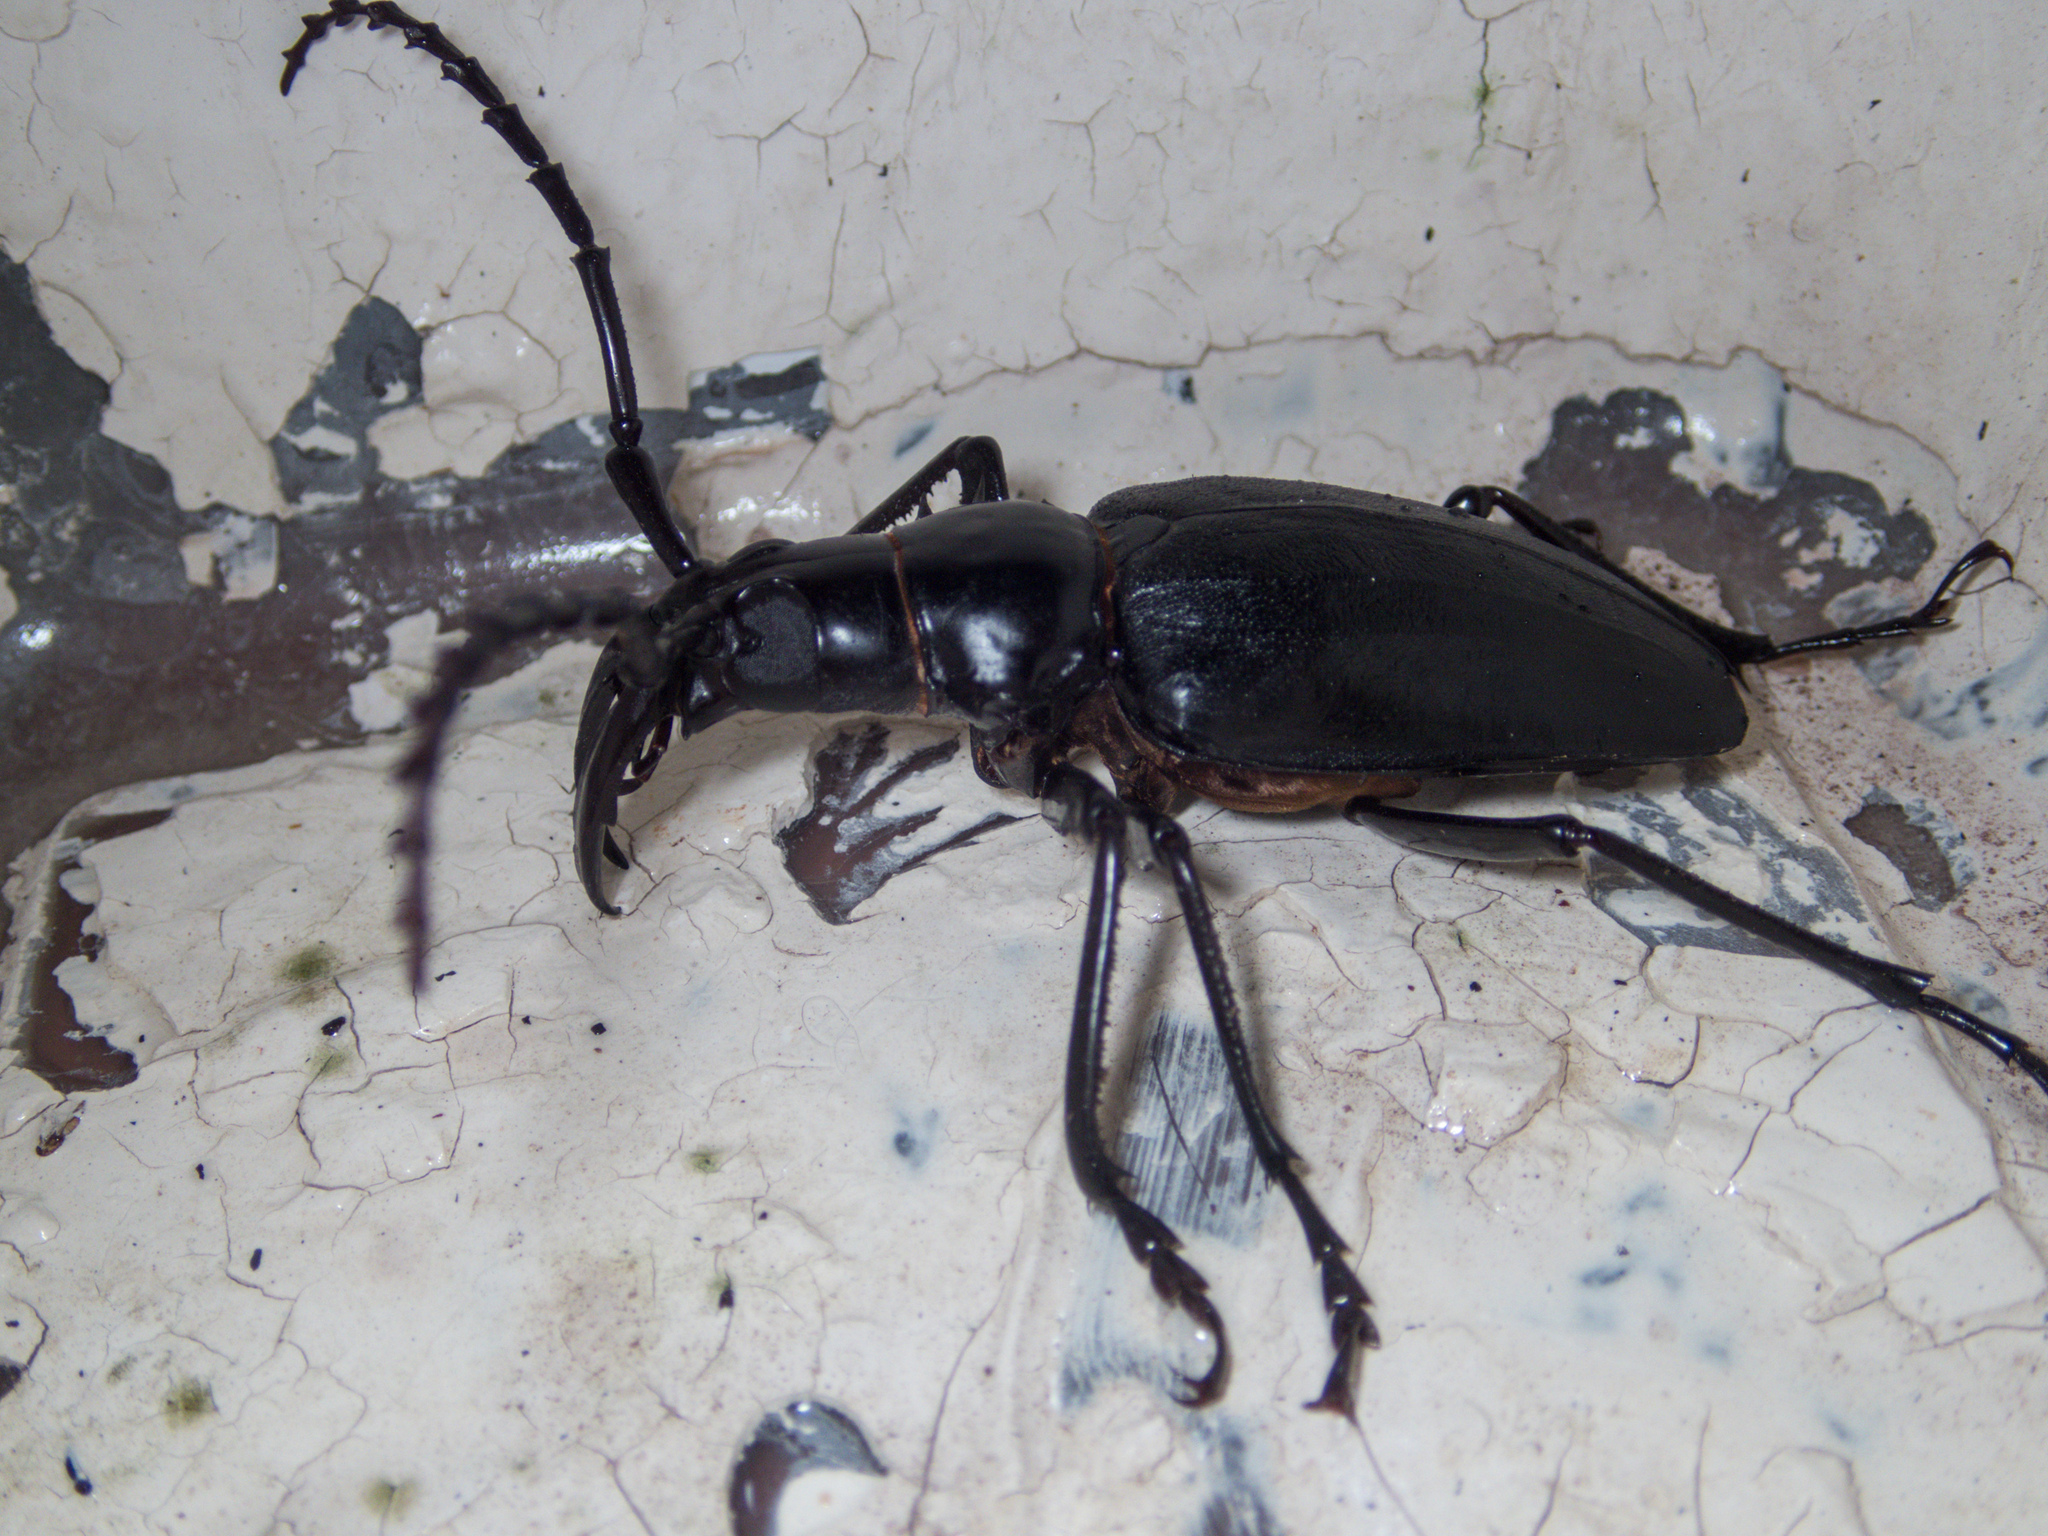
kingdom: Animalia
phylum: Arthropoda
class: Insecta
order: Coleoptera
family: Cerambycidae
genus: Dorysthenes
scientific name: Dorysthenes walkeri
